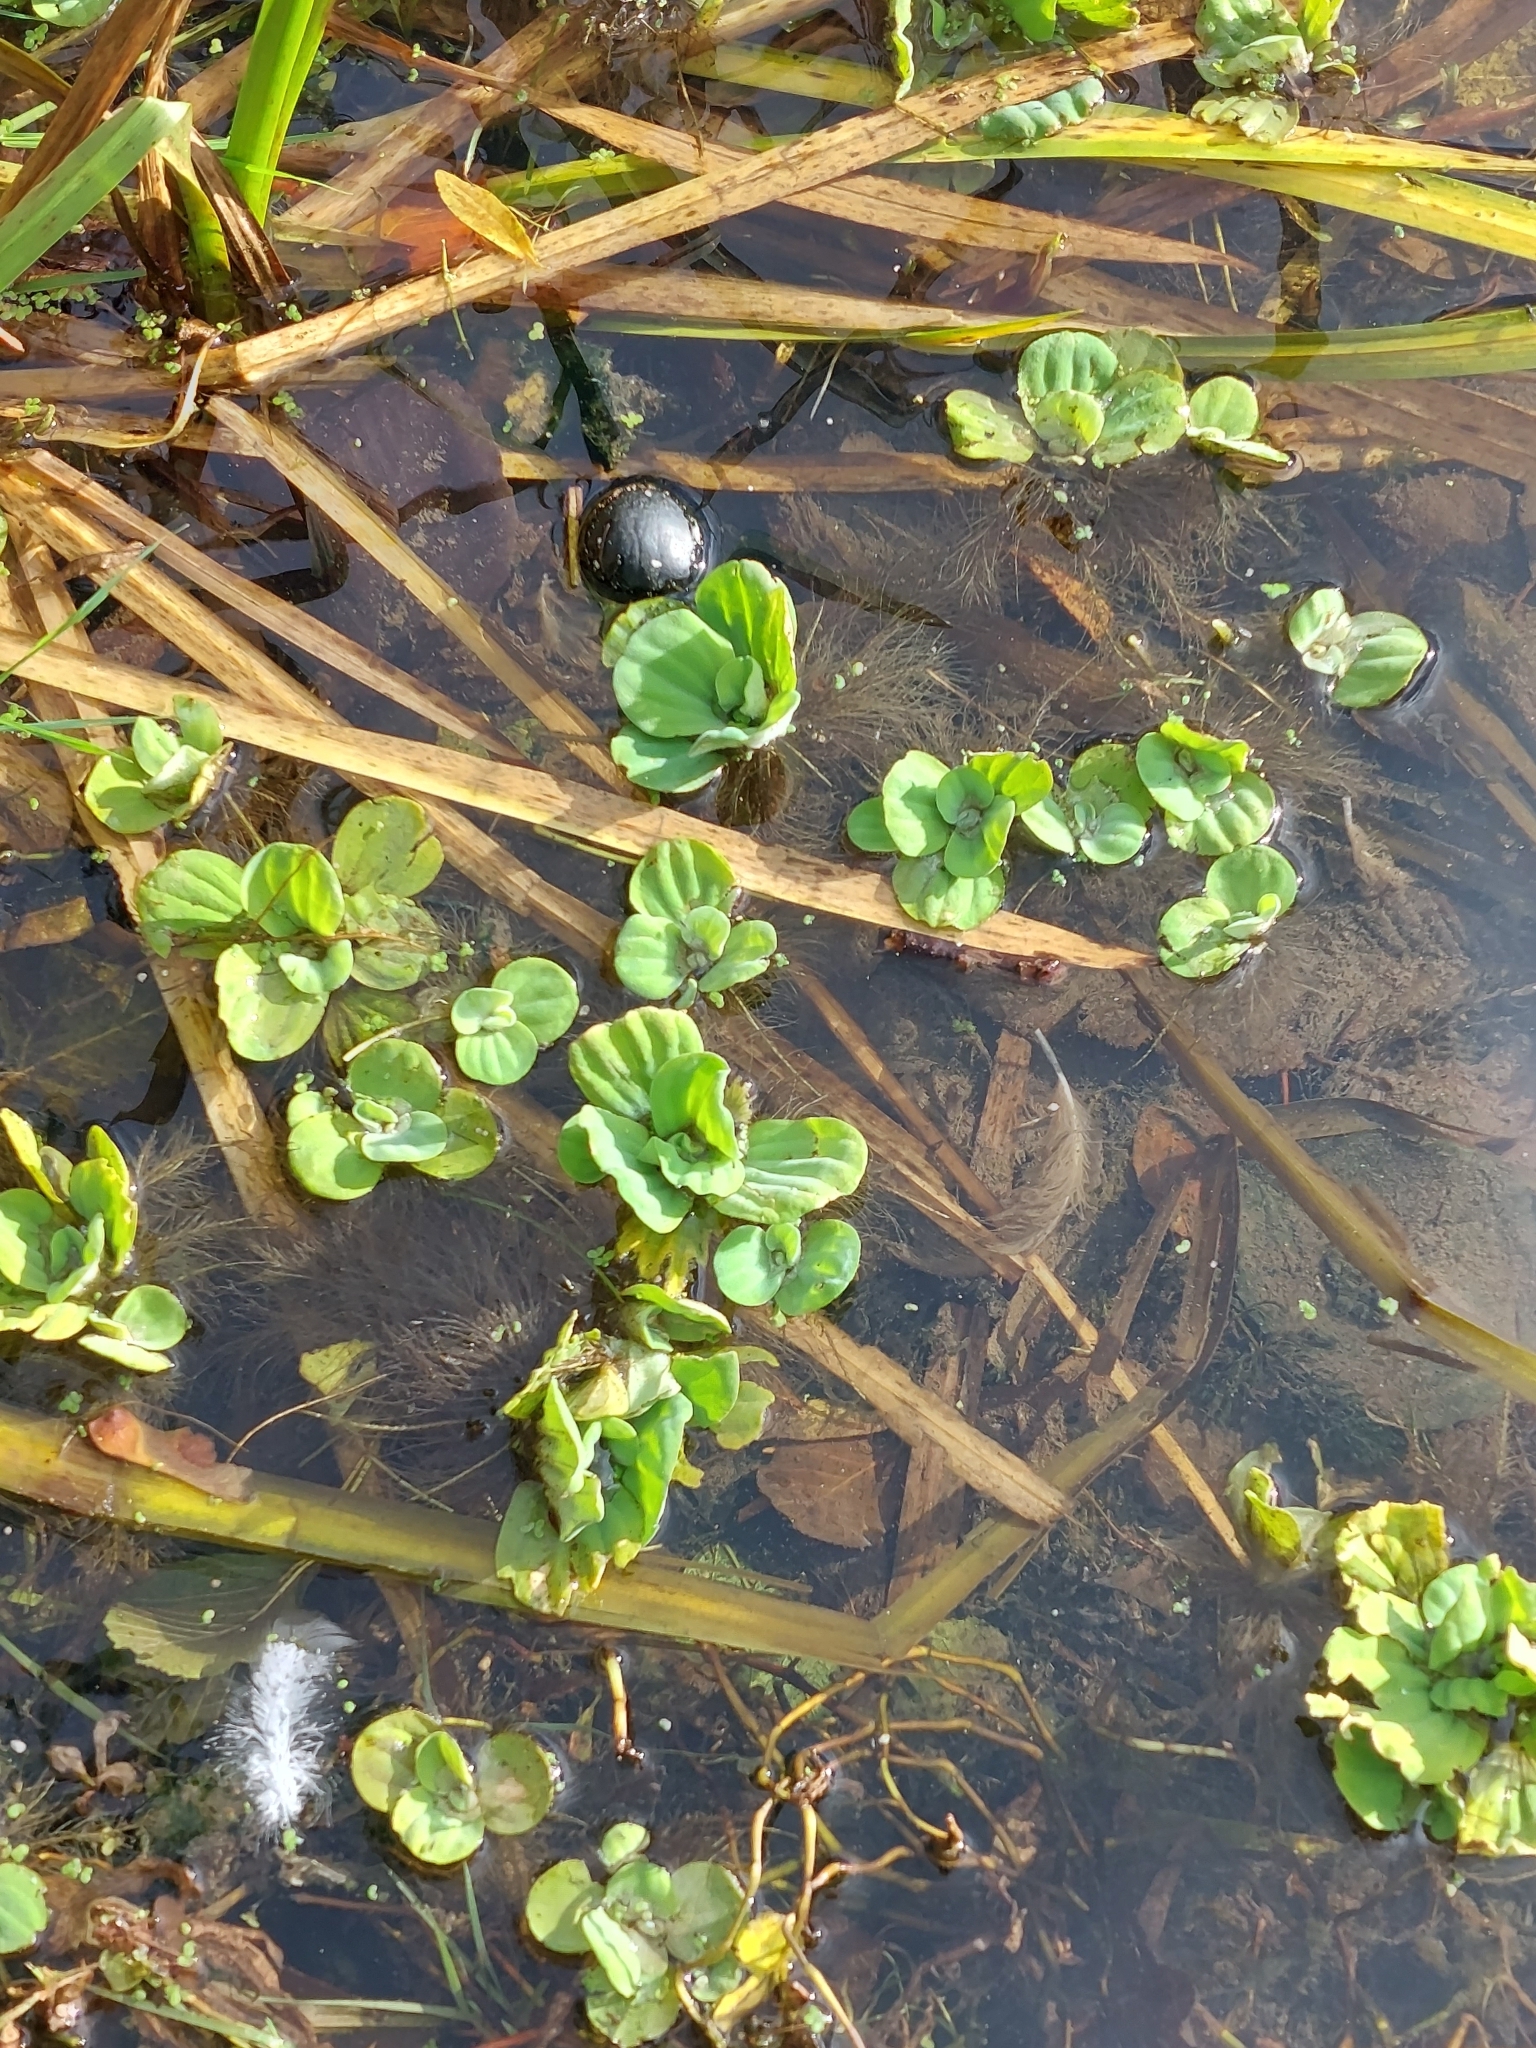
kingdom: Plantae
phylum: Tracheophyta
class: Liliopsida
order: Alismatales
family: Araceae
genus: Pistia
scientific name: Pistia stratiotes
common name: Water lettuce
